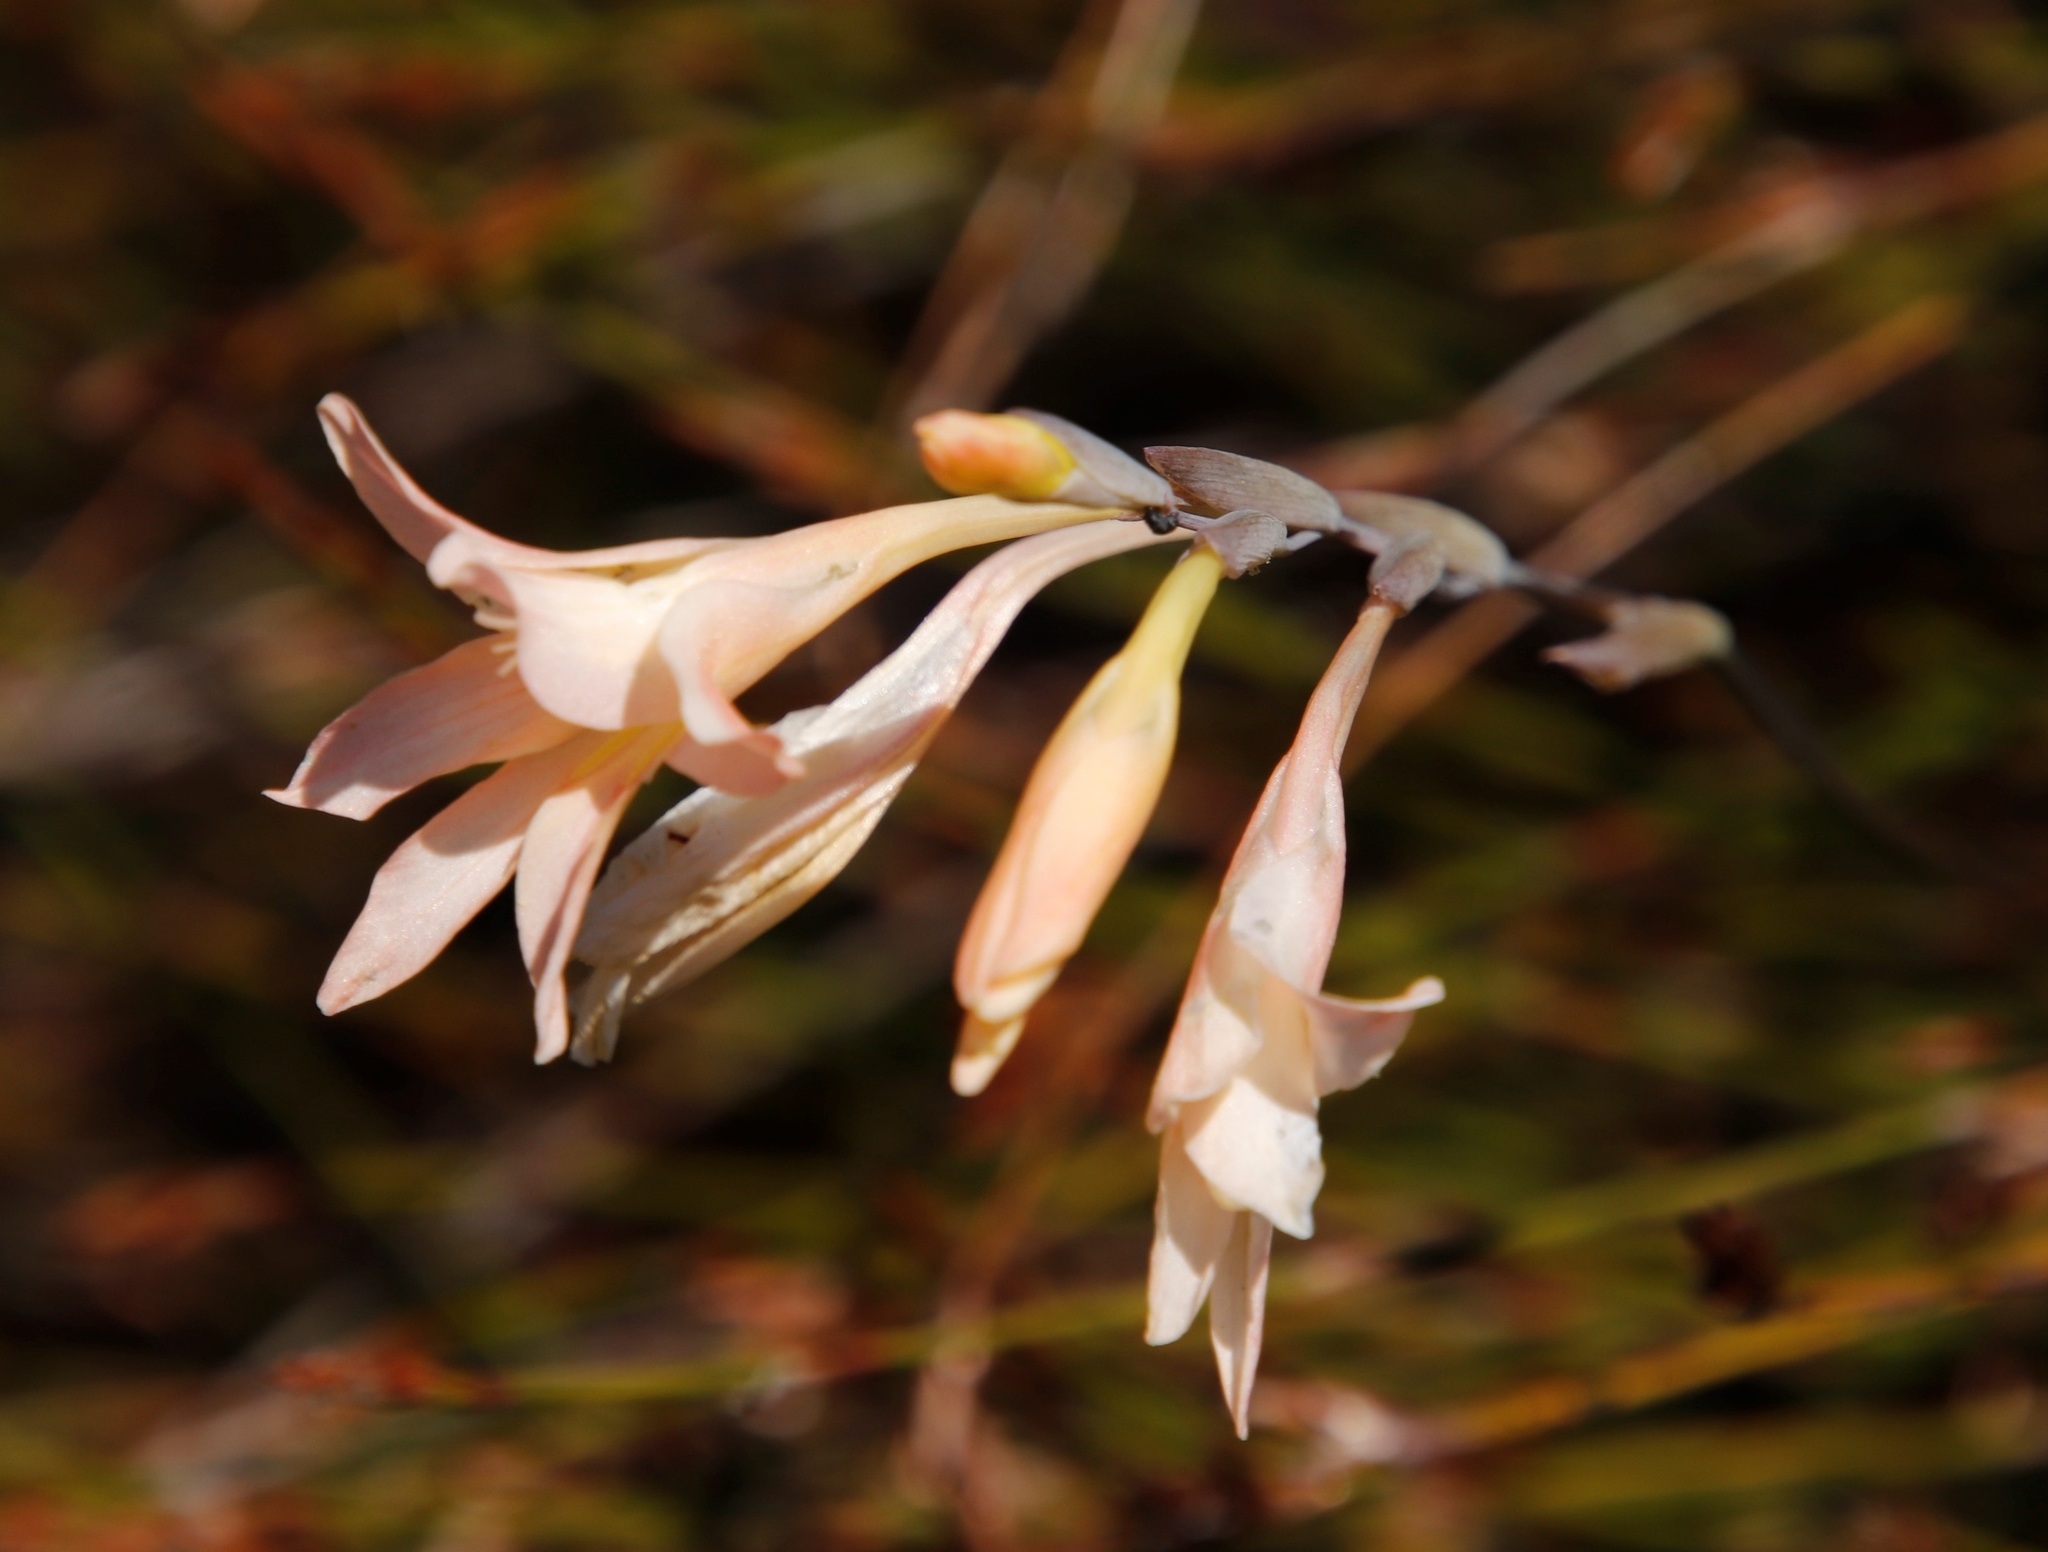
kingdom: Plantae
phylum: Tracheophyta
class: Liliopsida
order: Asparagales
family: Iridaceae
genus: Gladiolus
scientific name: Gladiolus monticola
